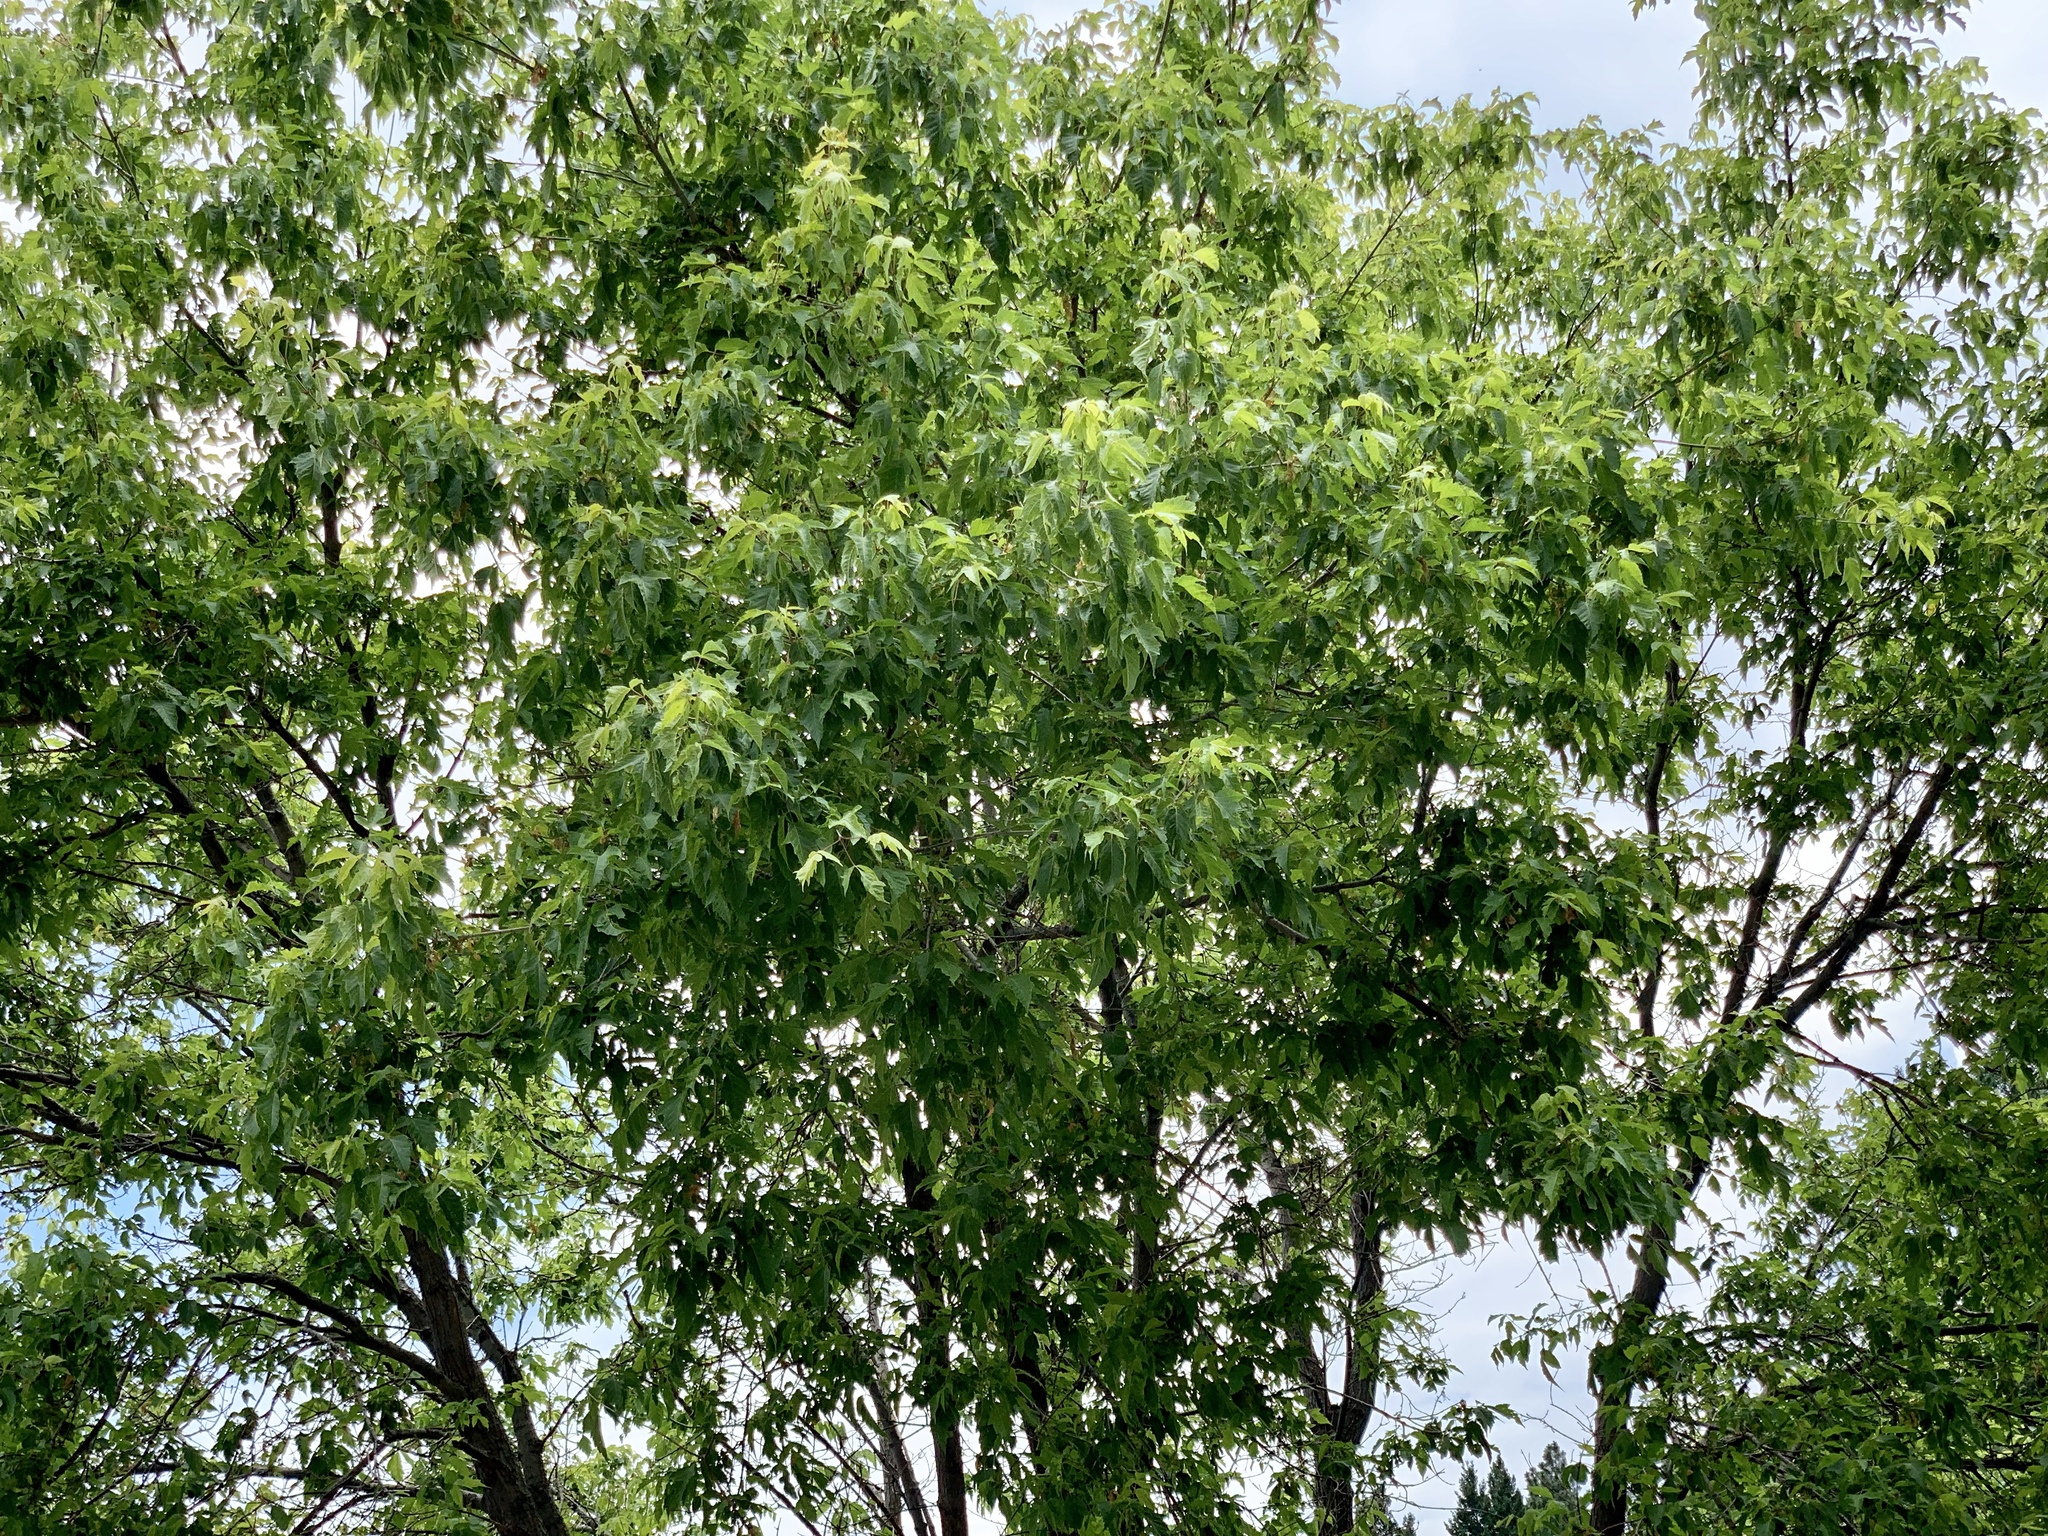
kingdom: Plantae
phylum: Tracheophyta
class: Magnoliopsida
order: Sapindales
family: Sapindaceae
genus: Acer
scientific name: Acer negundo
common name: Ashleaf maple
